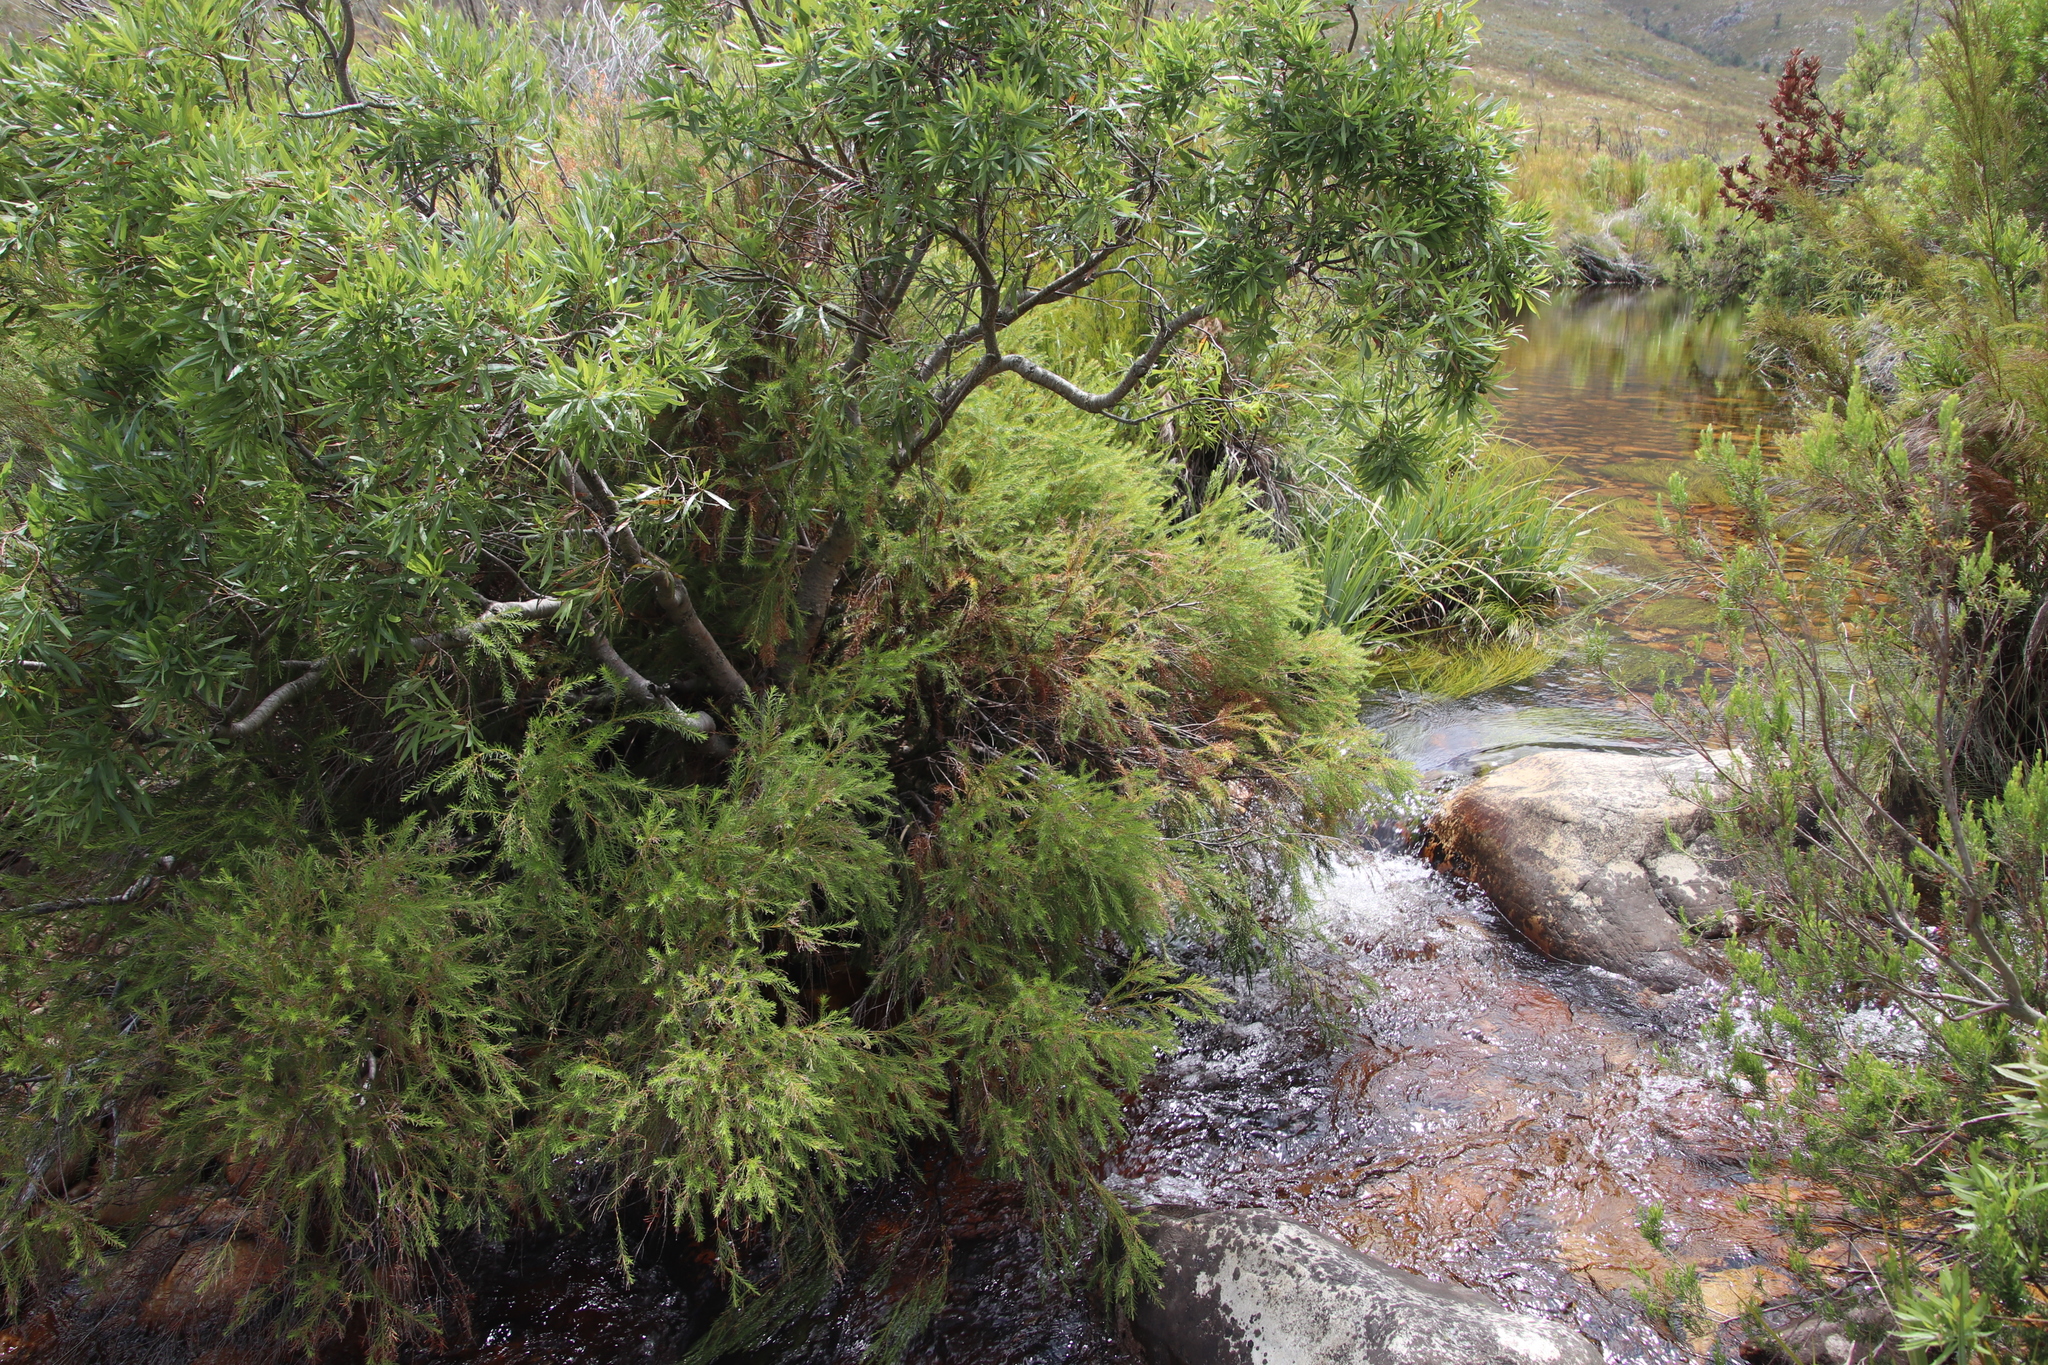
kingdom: Plantae
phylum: Tracheophyta
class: Magnoliopsida
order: Bruniales
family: Bruniaceae
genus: Brunia
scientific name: Brunia africana
